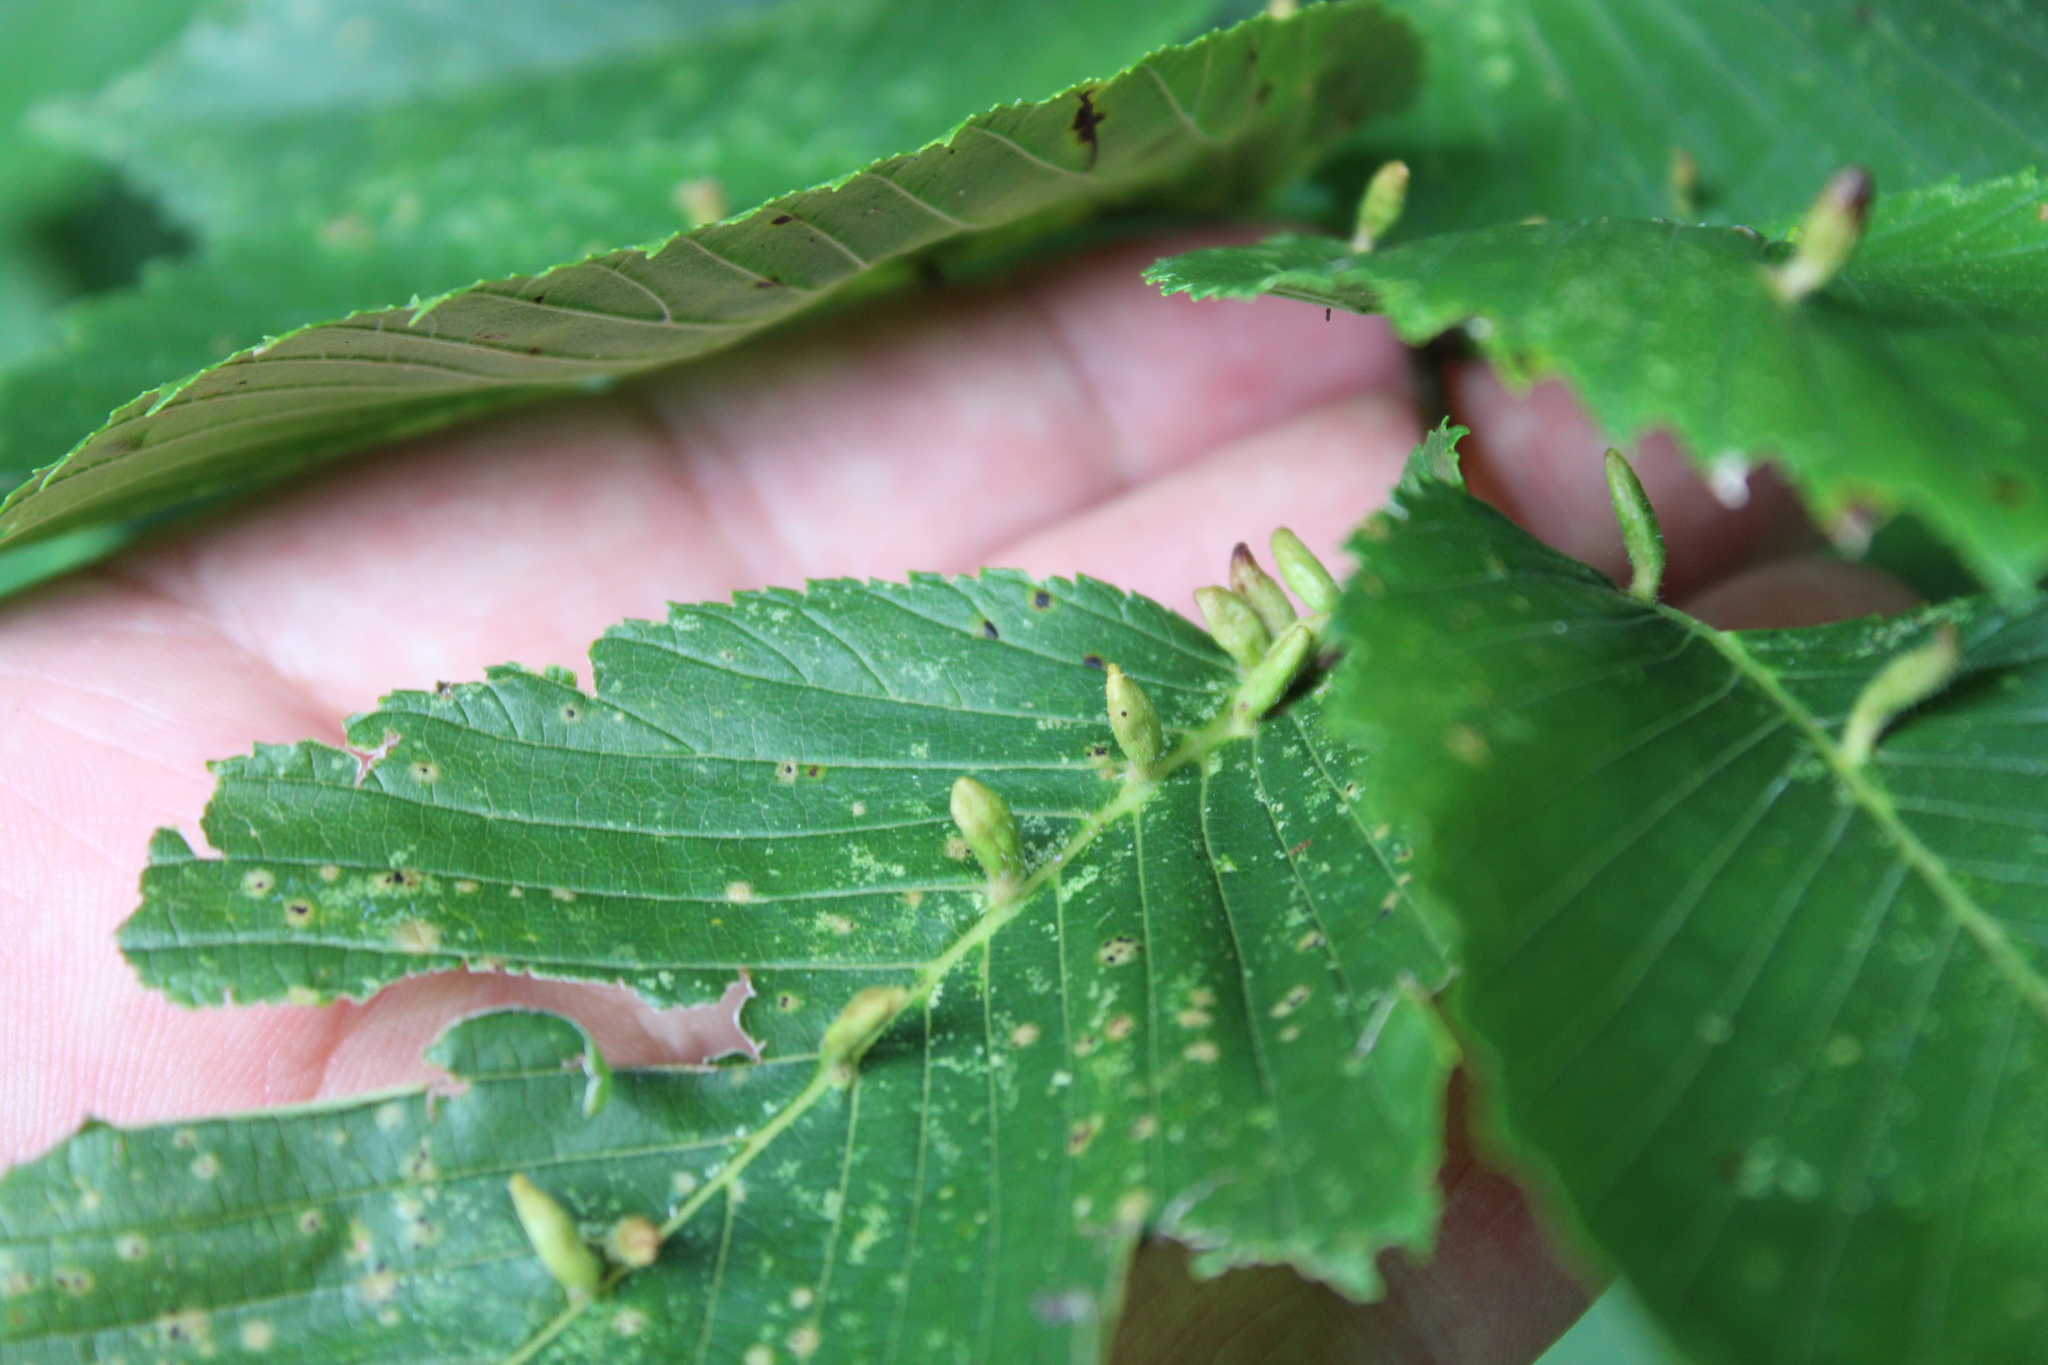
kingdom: Animalia
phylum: Arthropoda
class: Arachnida
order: Trombidiformes
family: Eriophyidae
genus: Aceria
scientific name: Aceria
